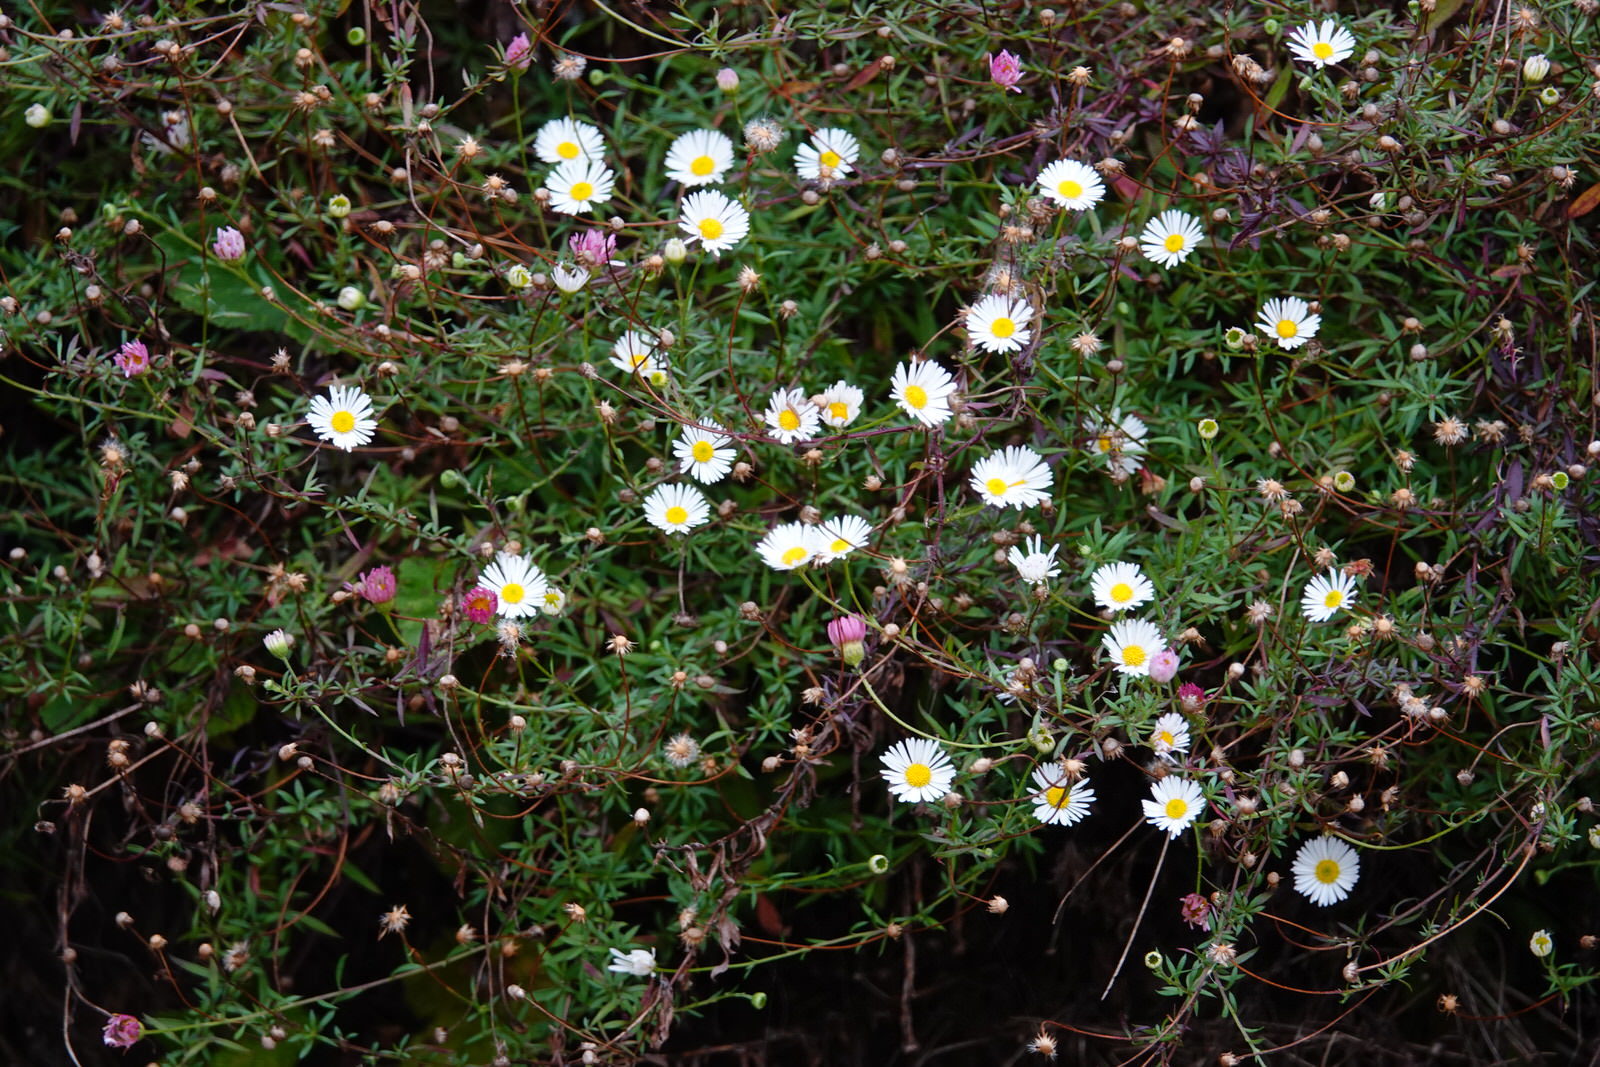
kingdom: Plantae
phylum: Tracheophyta
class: Magnoliopsida
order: Asterales
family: Asteraceae
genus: Erigeron
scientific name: Erigeron karvinskianus
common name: Mexican fleabane
